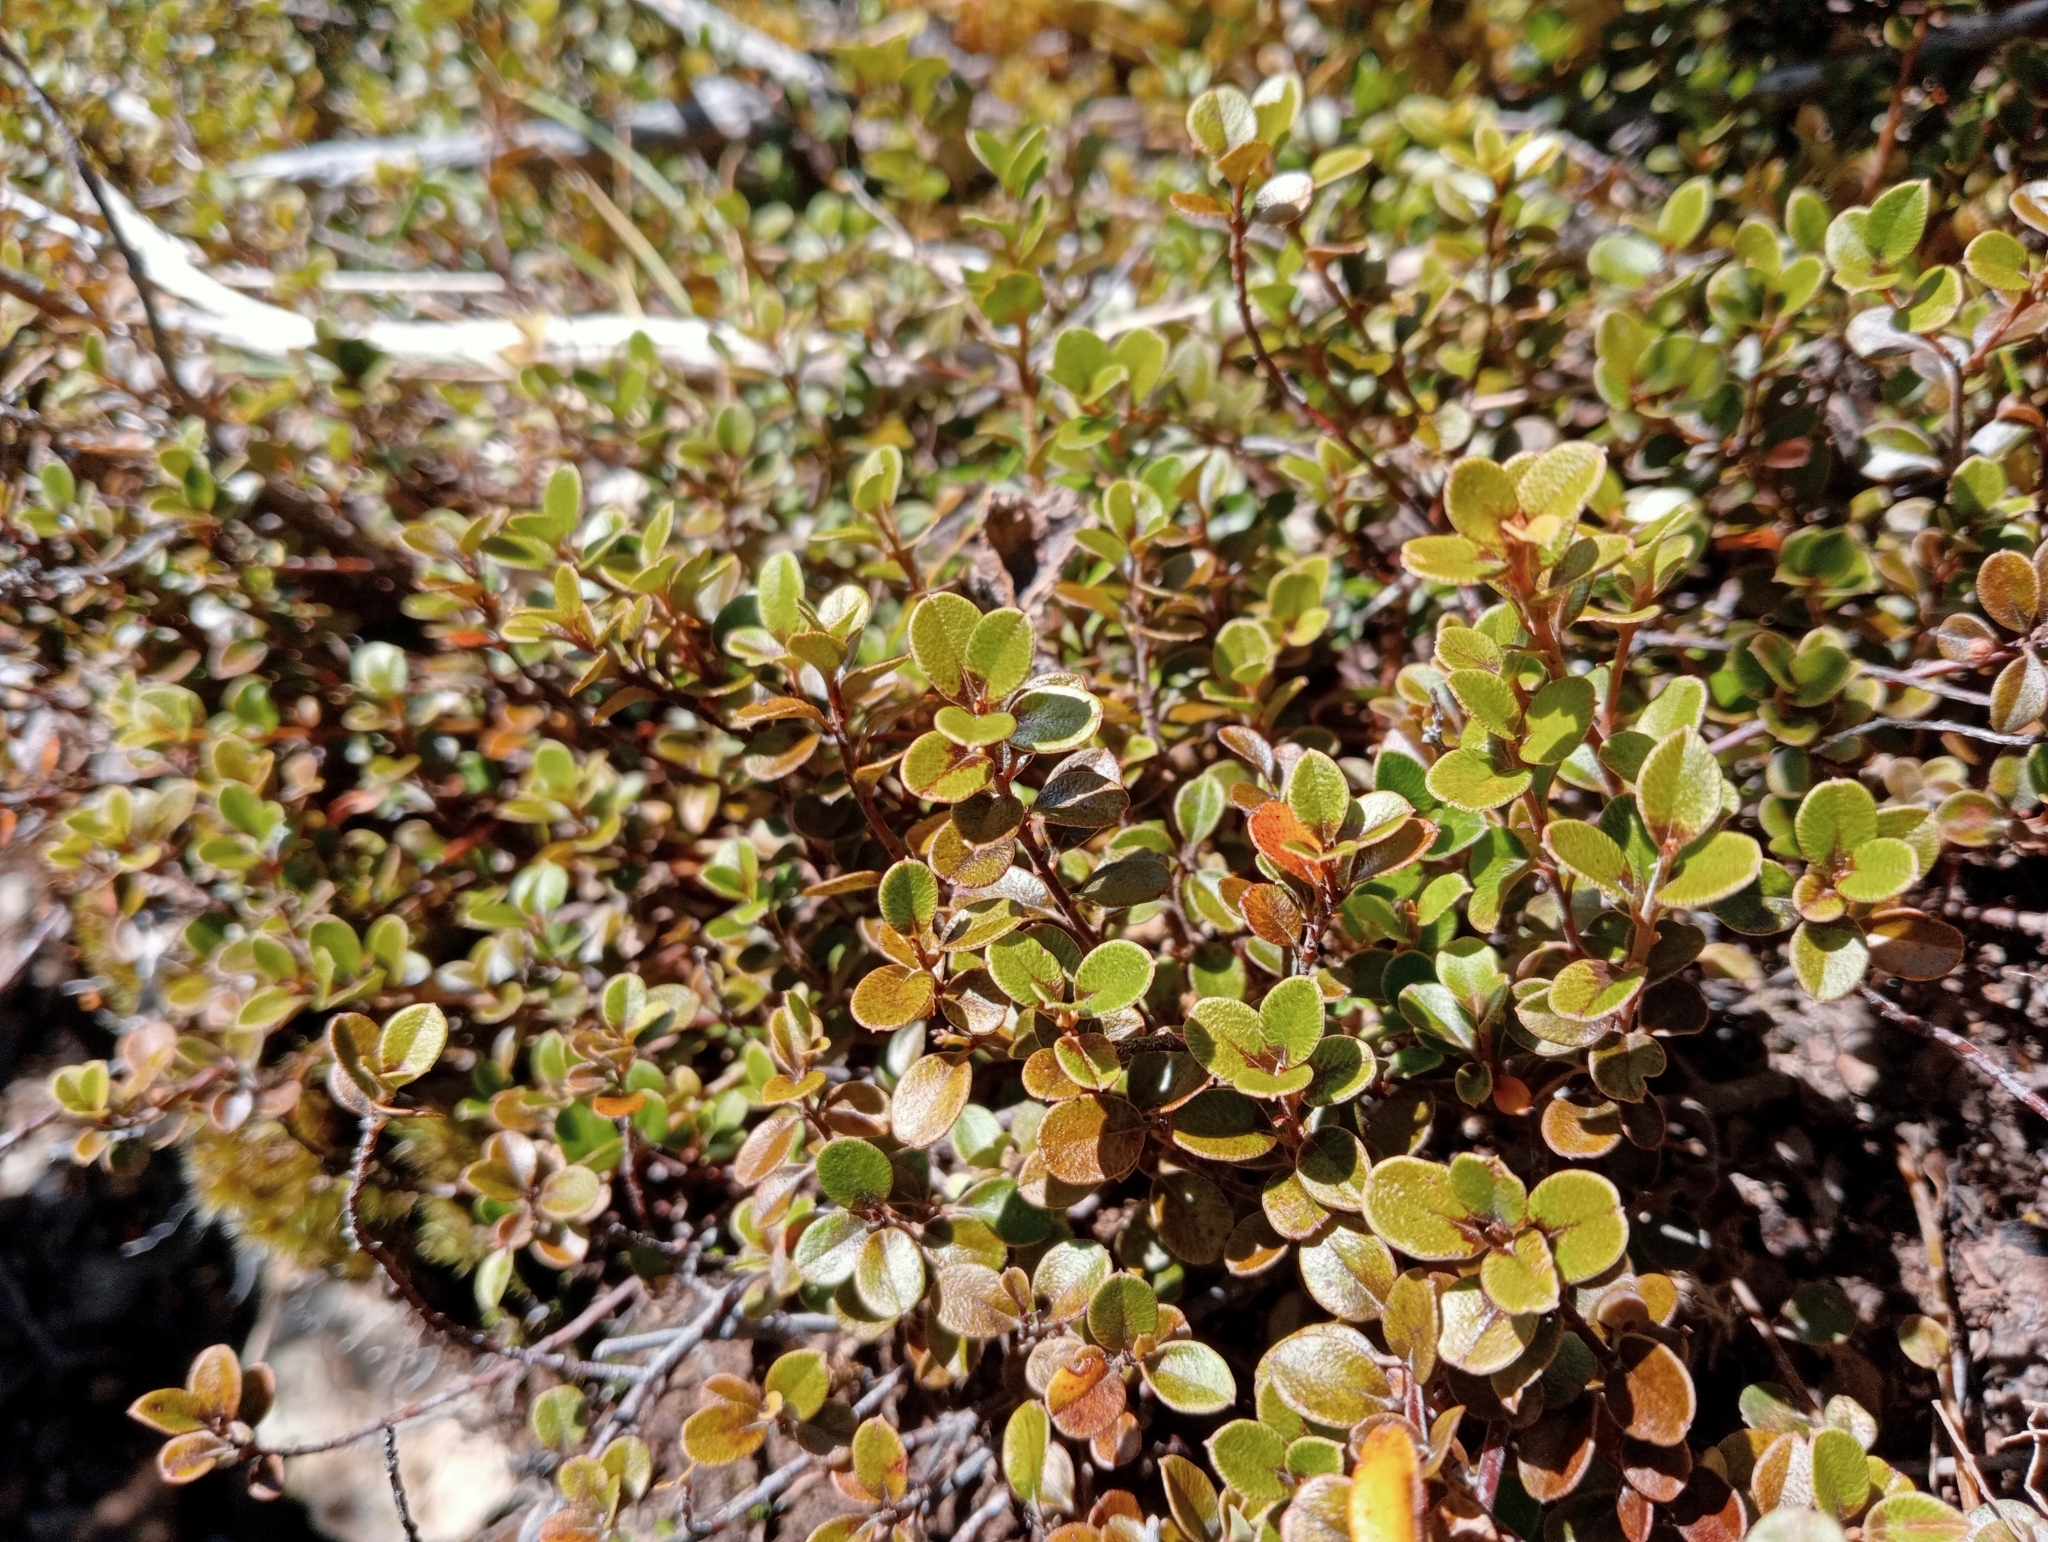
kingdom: Plantae
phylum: Tracheophyta
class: Magnoliopsida
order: Ericales
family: Primulaceae
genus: Myrsine
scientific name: Myrsine nummularia
